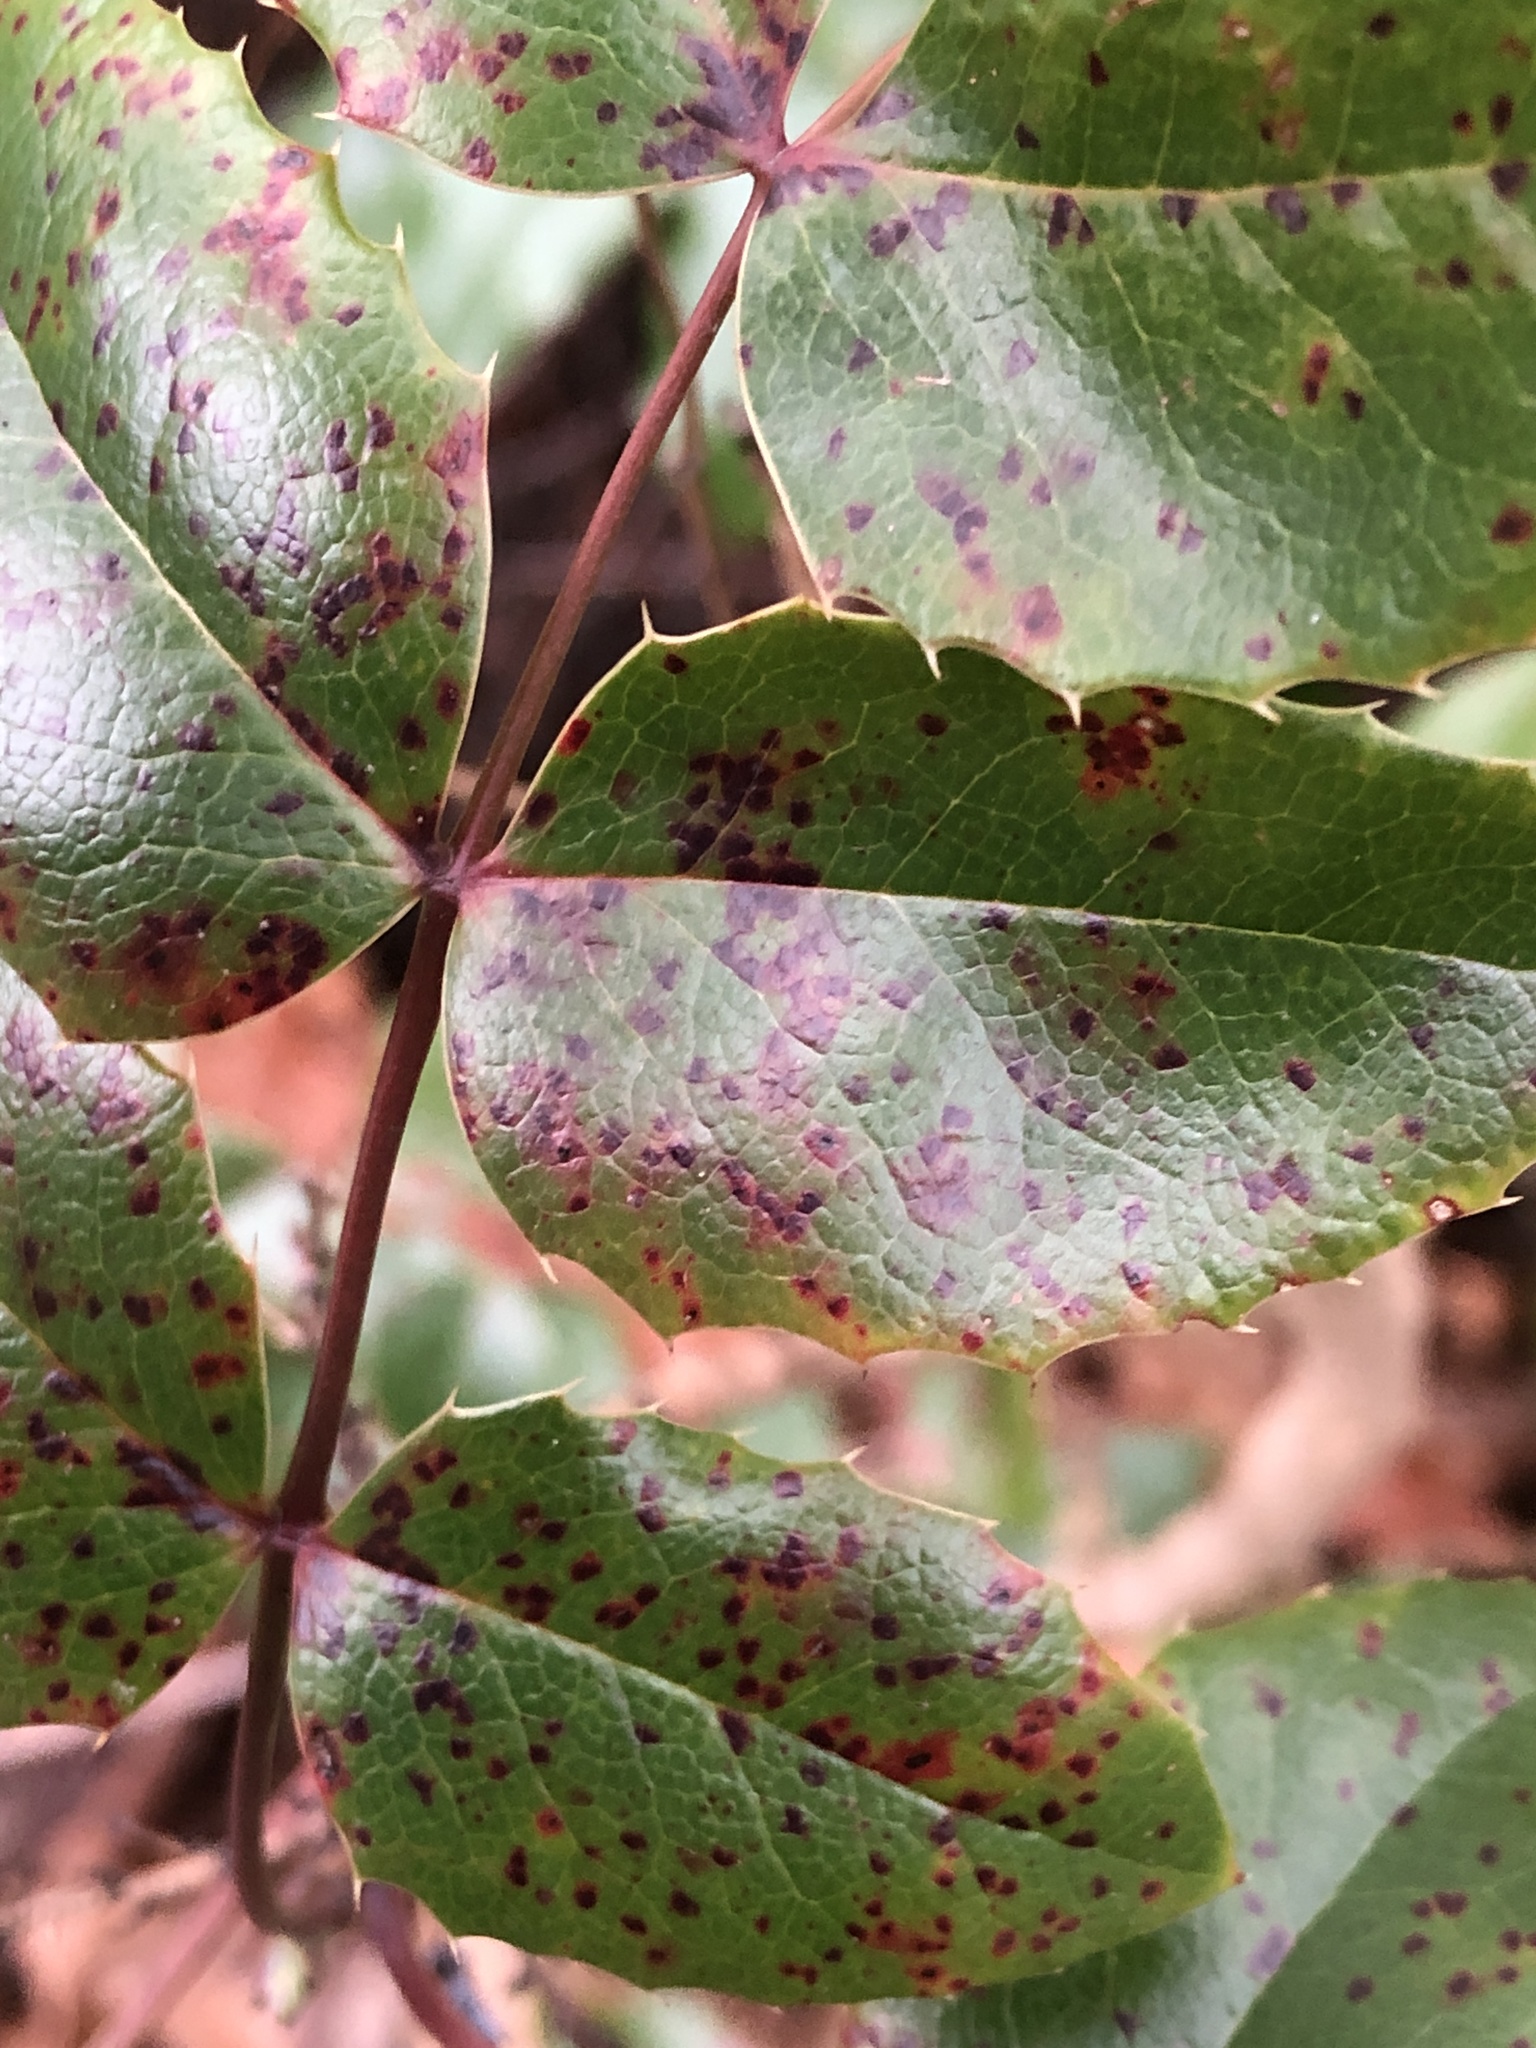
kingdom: Fungi
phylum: Basidiomycota
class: Pucciniomycetes
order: Pucciniales
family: Pucciniaceae
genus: Cumminsiella
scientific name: Cumminsiella mirabilissima
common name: Mahonia rust
